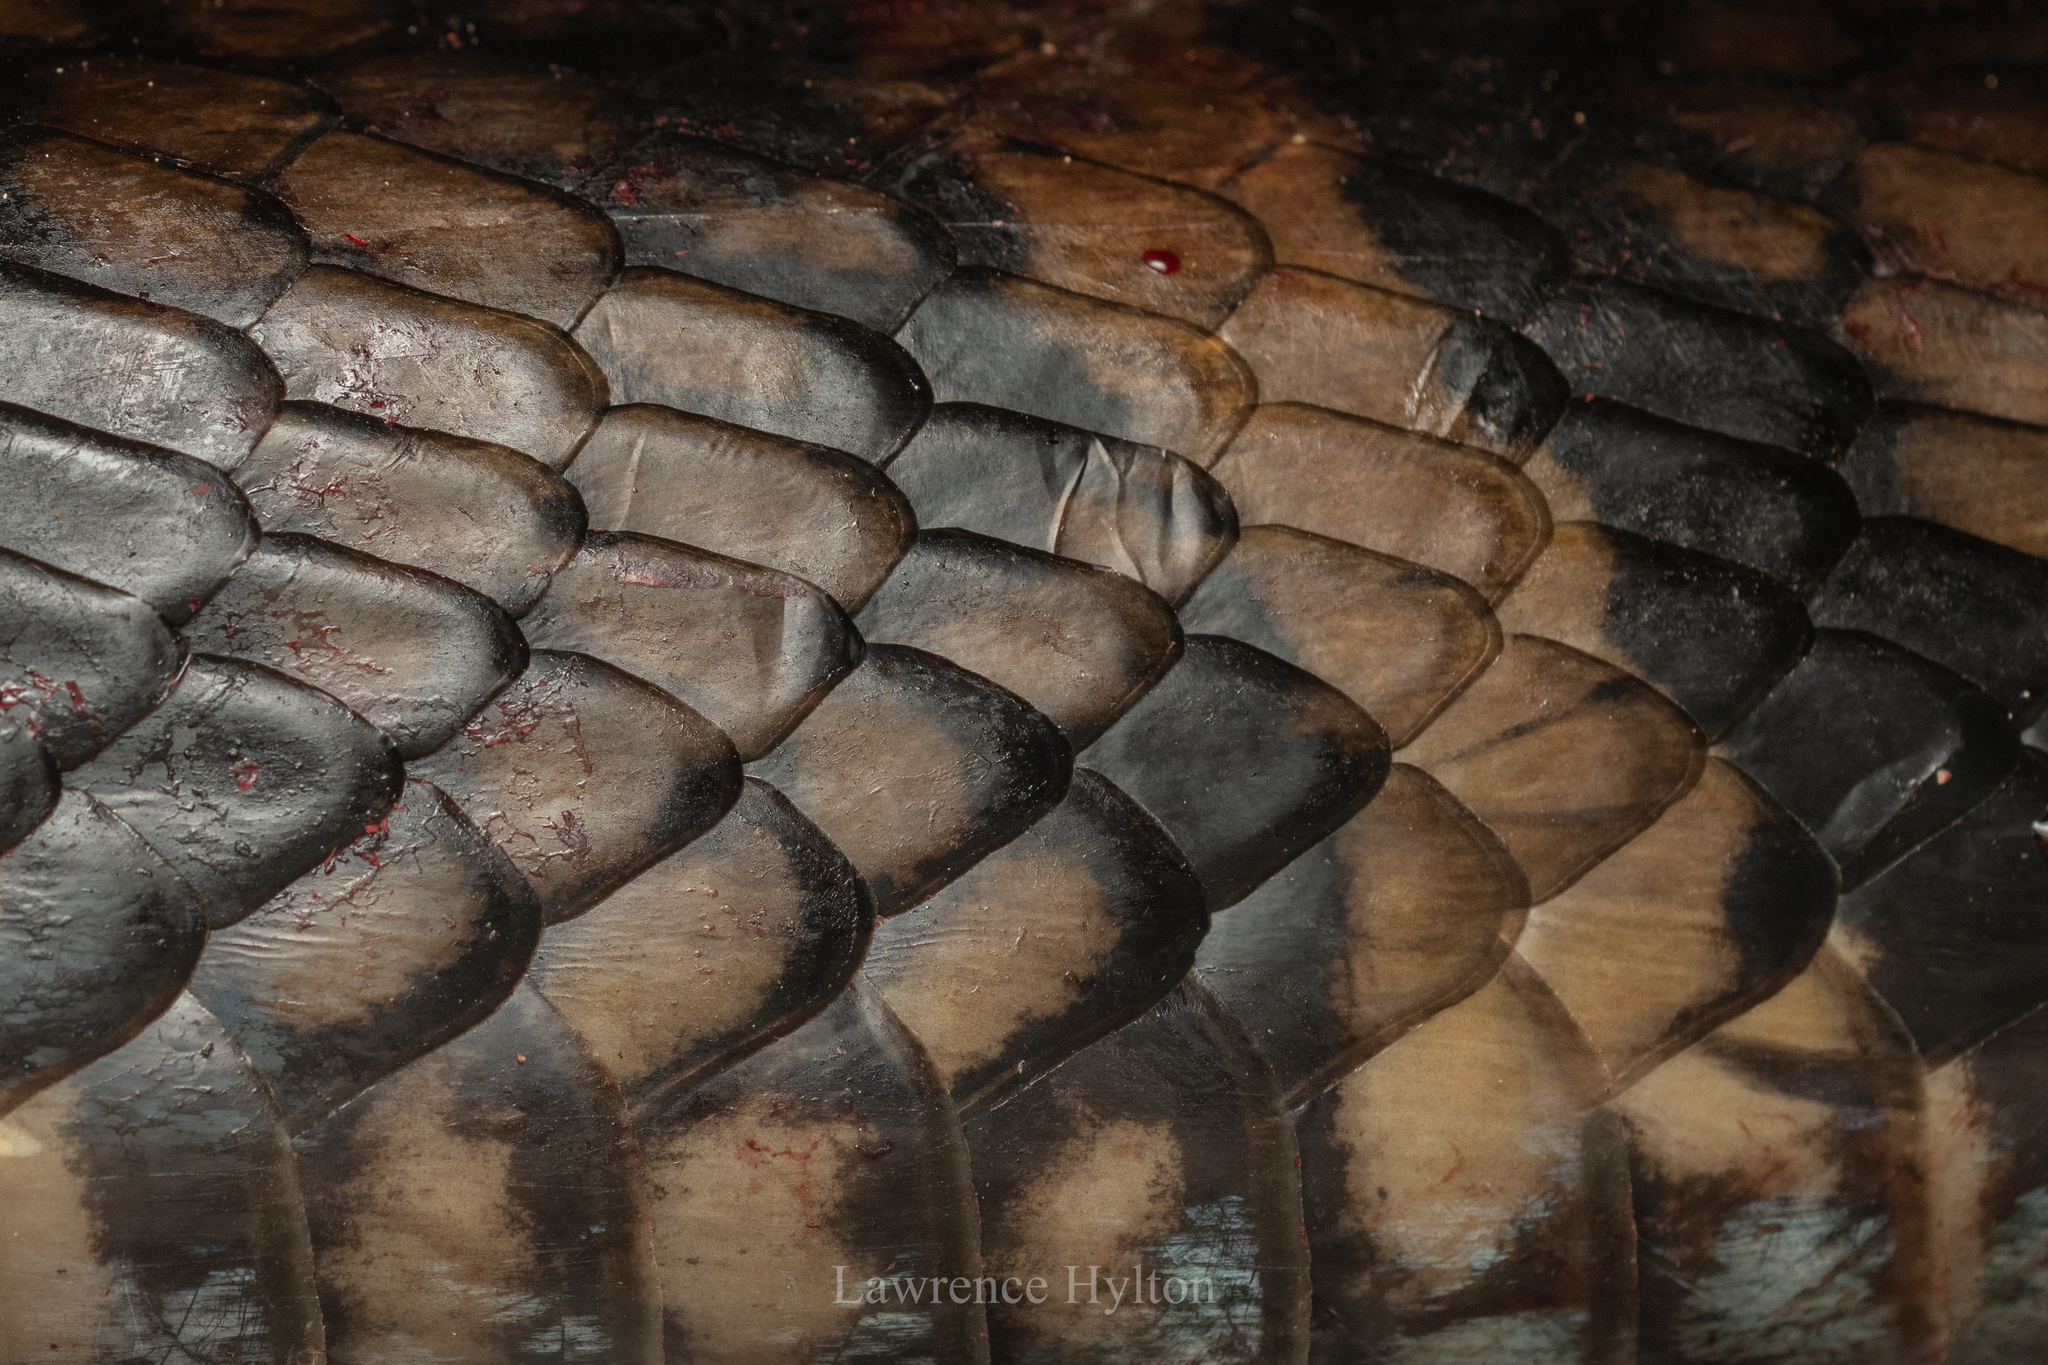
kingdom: Animalia
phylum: Chordata
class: Squamata
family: Elapidae
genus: Ophiophagus
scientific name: Ophiophagus hannah
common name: Hamadryad
